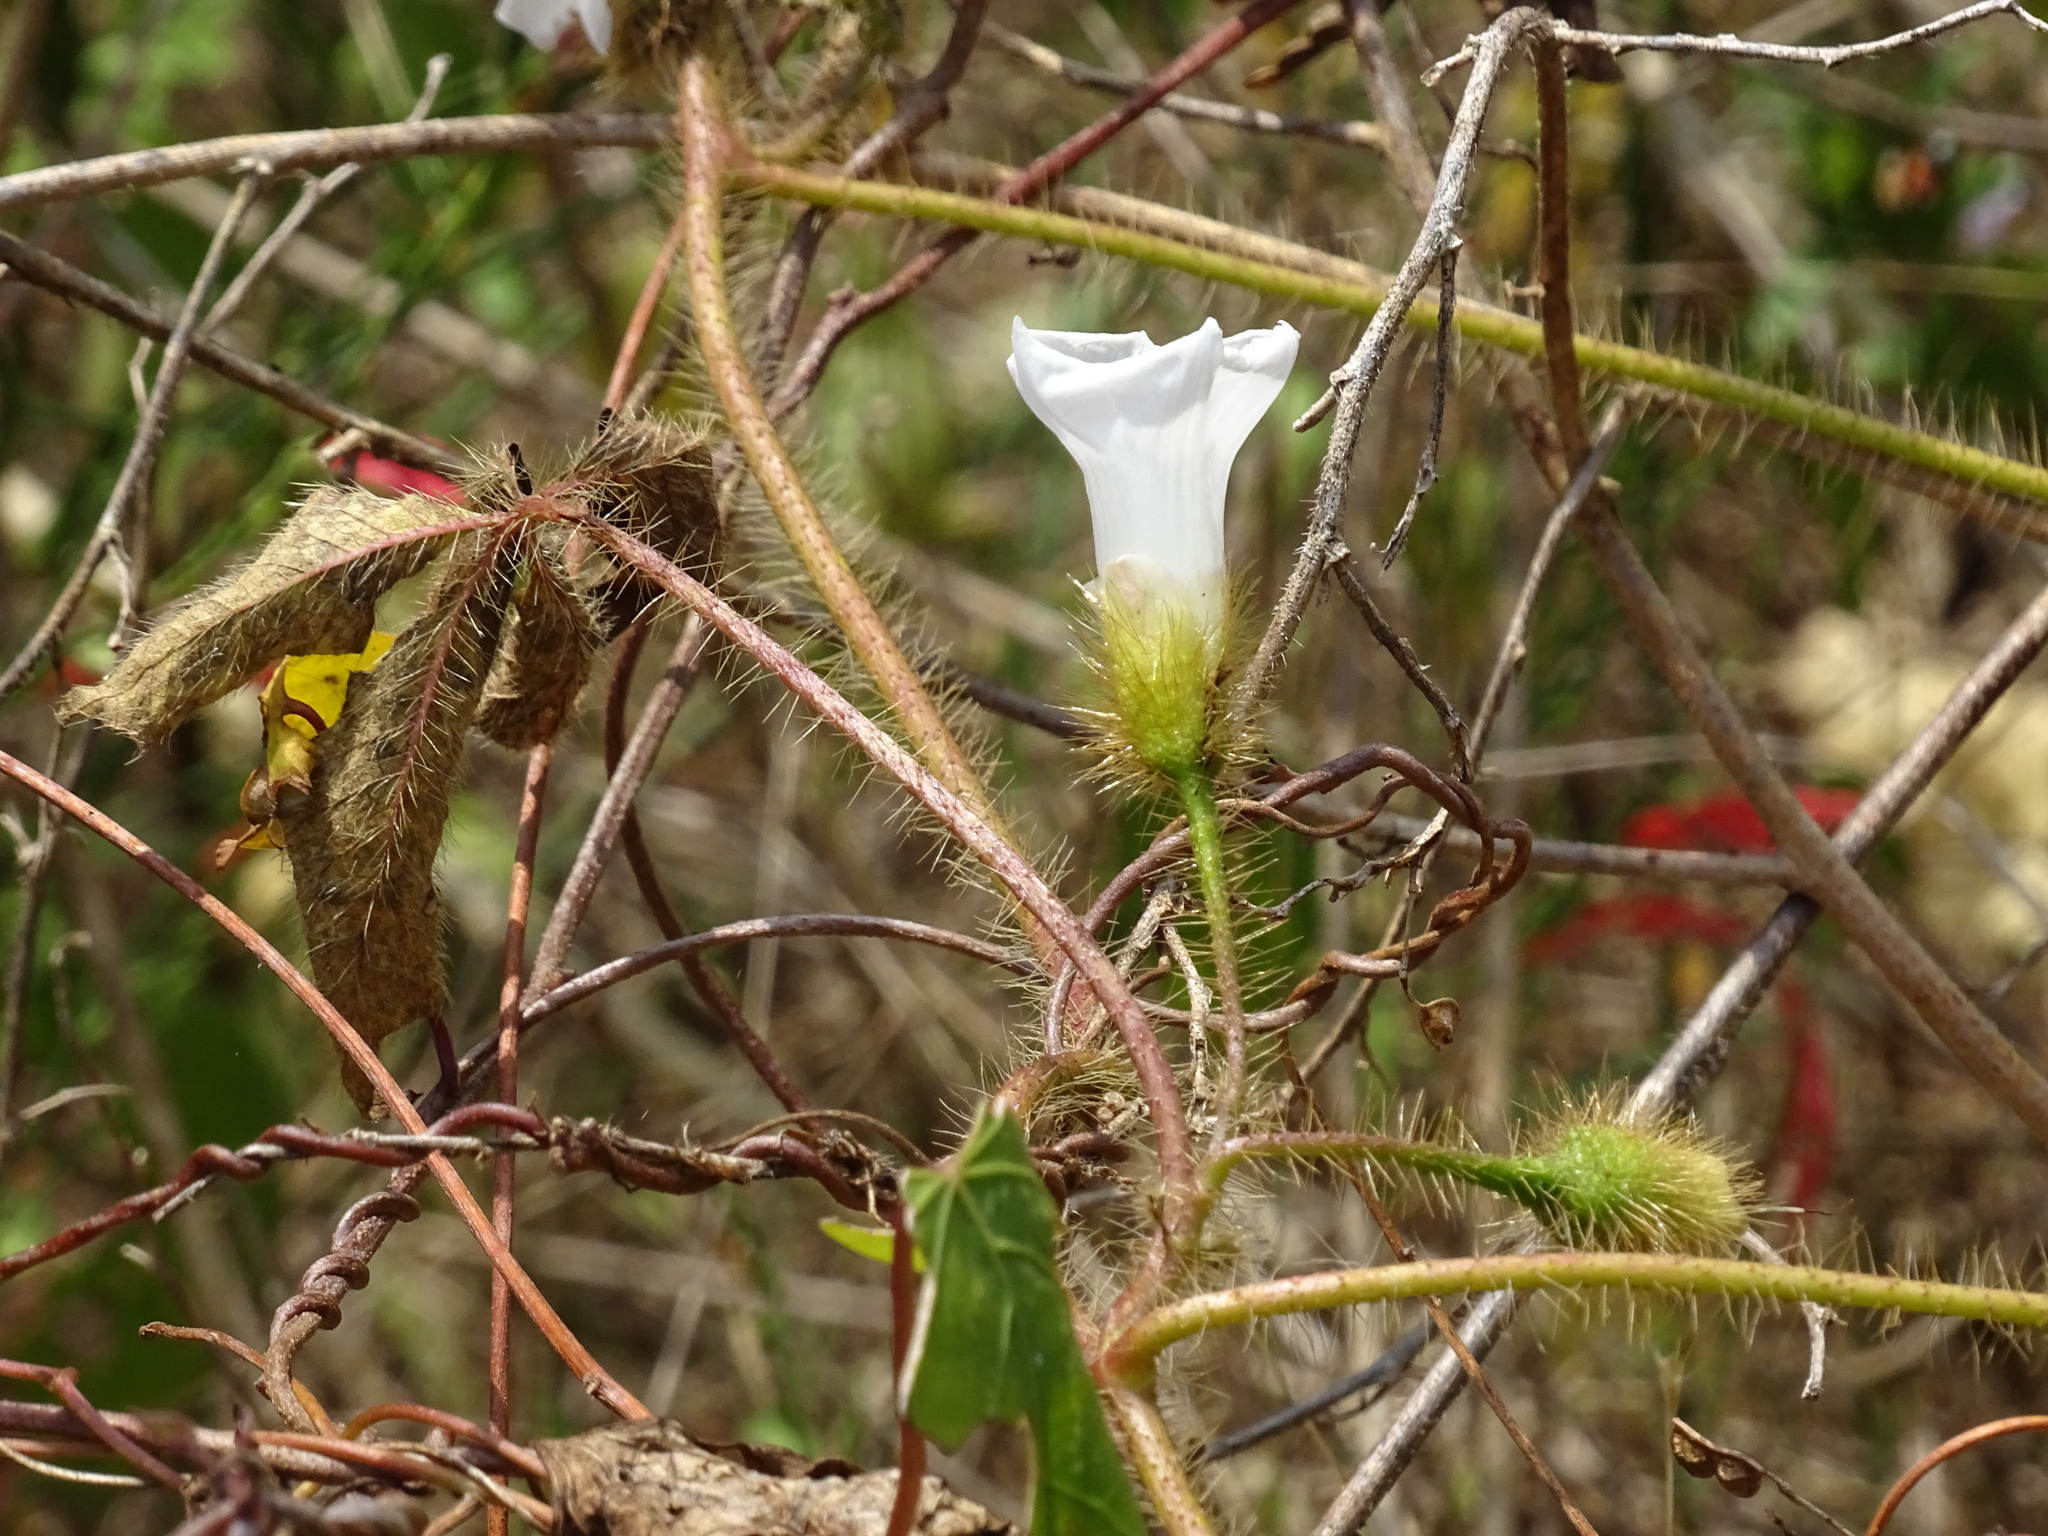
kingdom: Plantae
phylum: Tracheophyta
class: Magnoliopsida
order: Solanales
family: Convolvulaceae
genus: Distimake
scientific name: Distimake aegyptius
